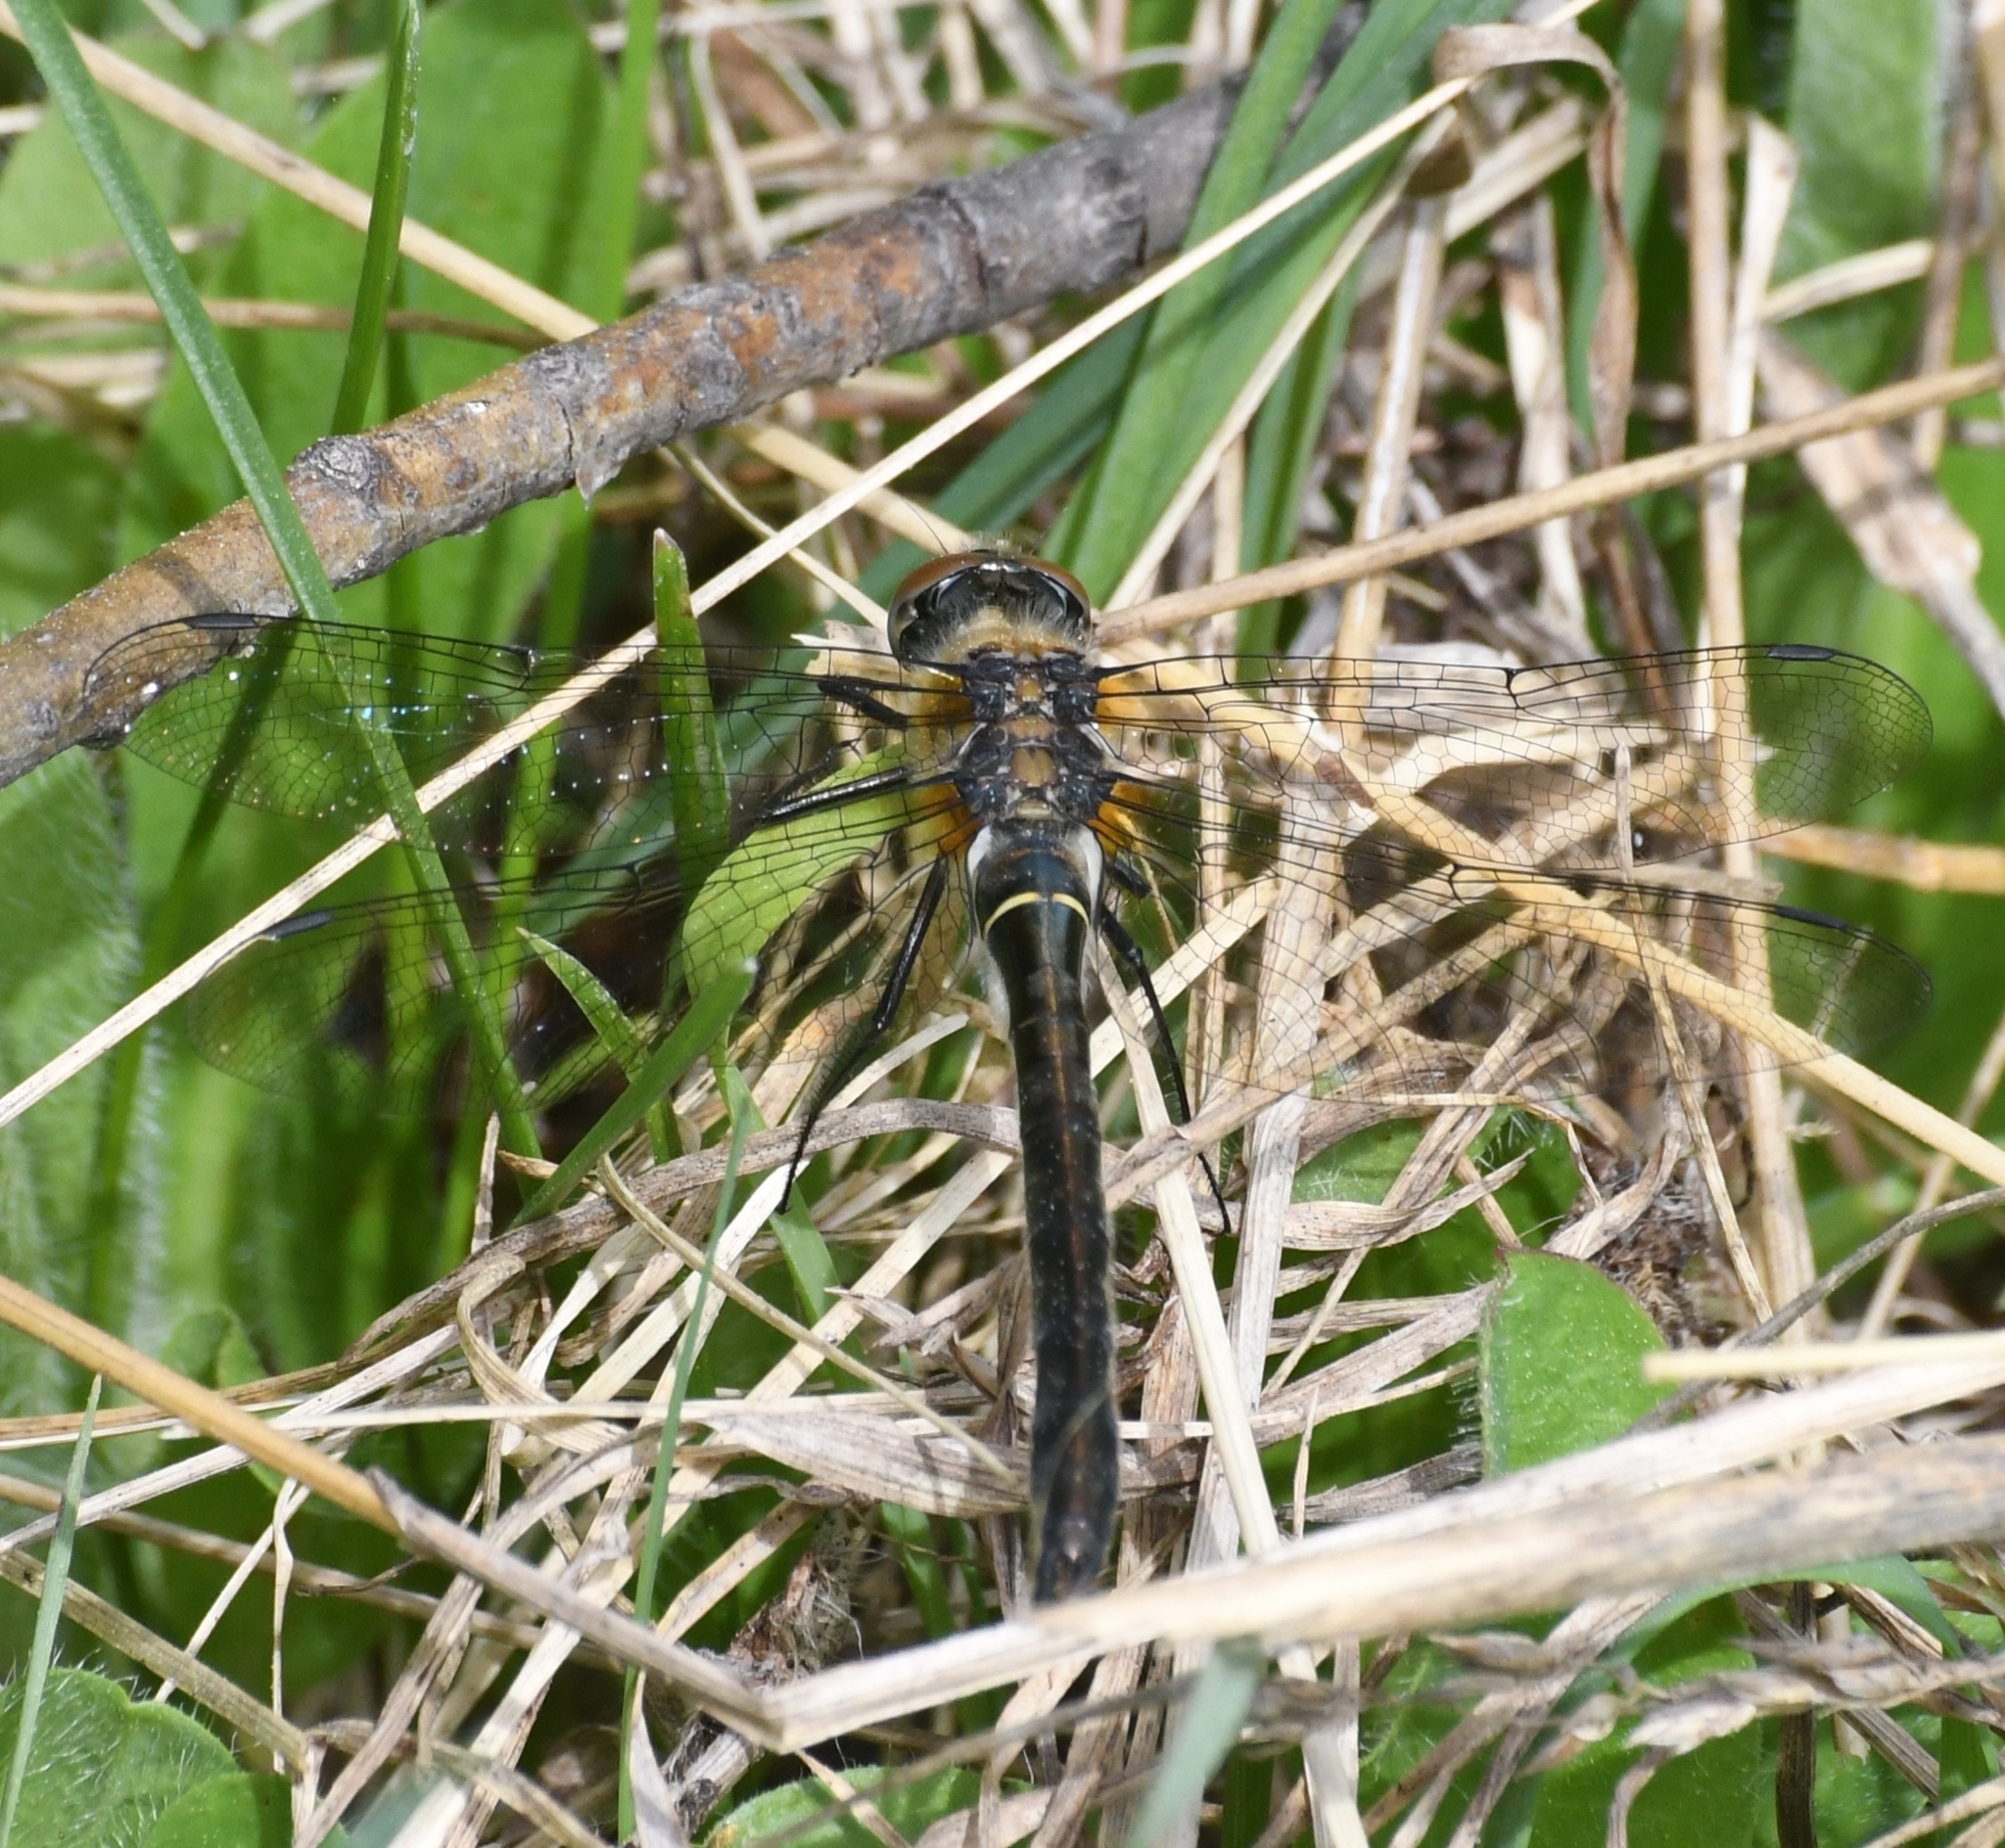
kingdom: Animalia
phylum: Arthropoda
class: Insecta
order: Odonata
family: Corduliidae
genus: Cordulia
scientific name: Cordulia shurtleffii
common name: American emerald
